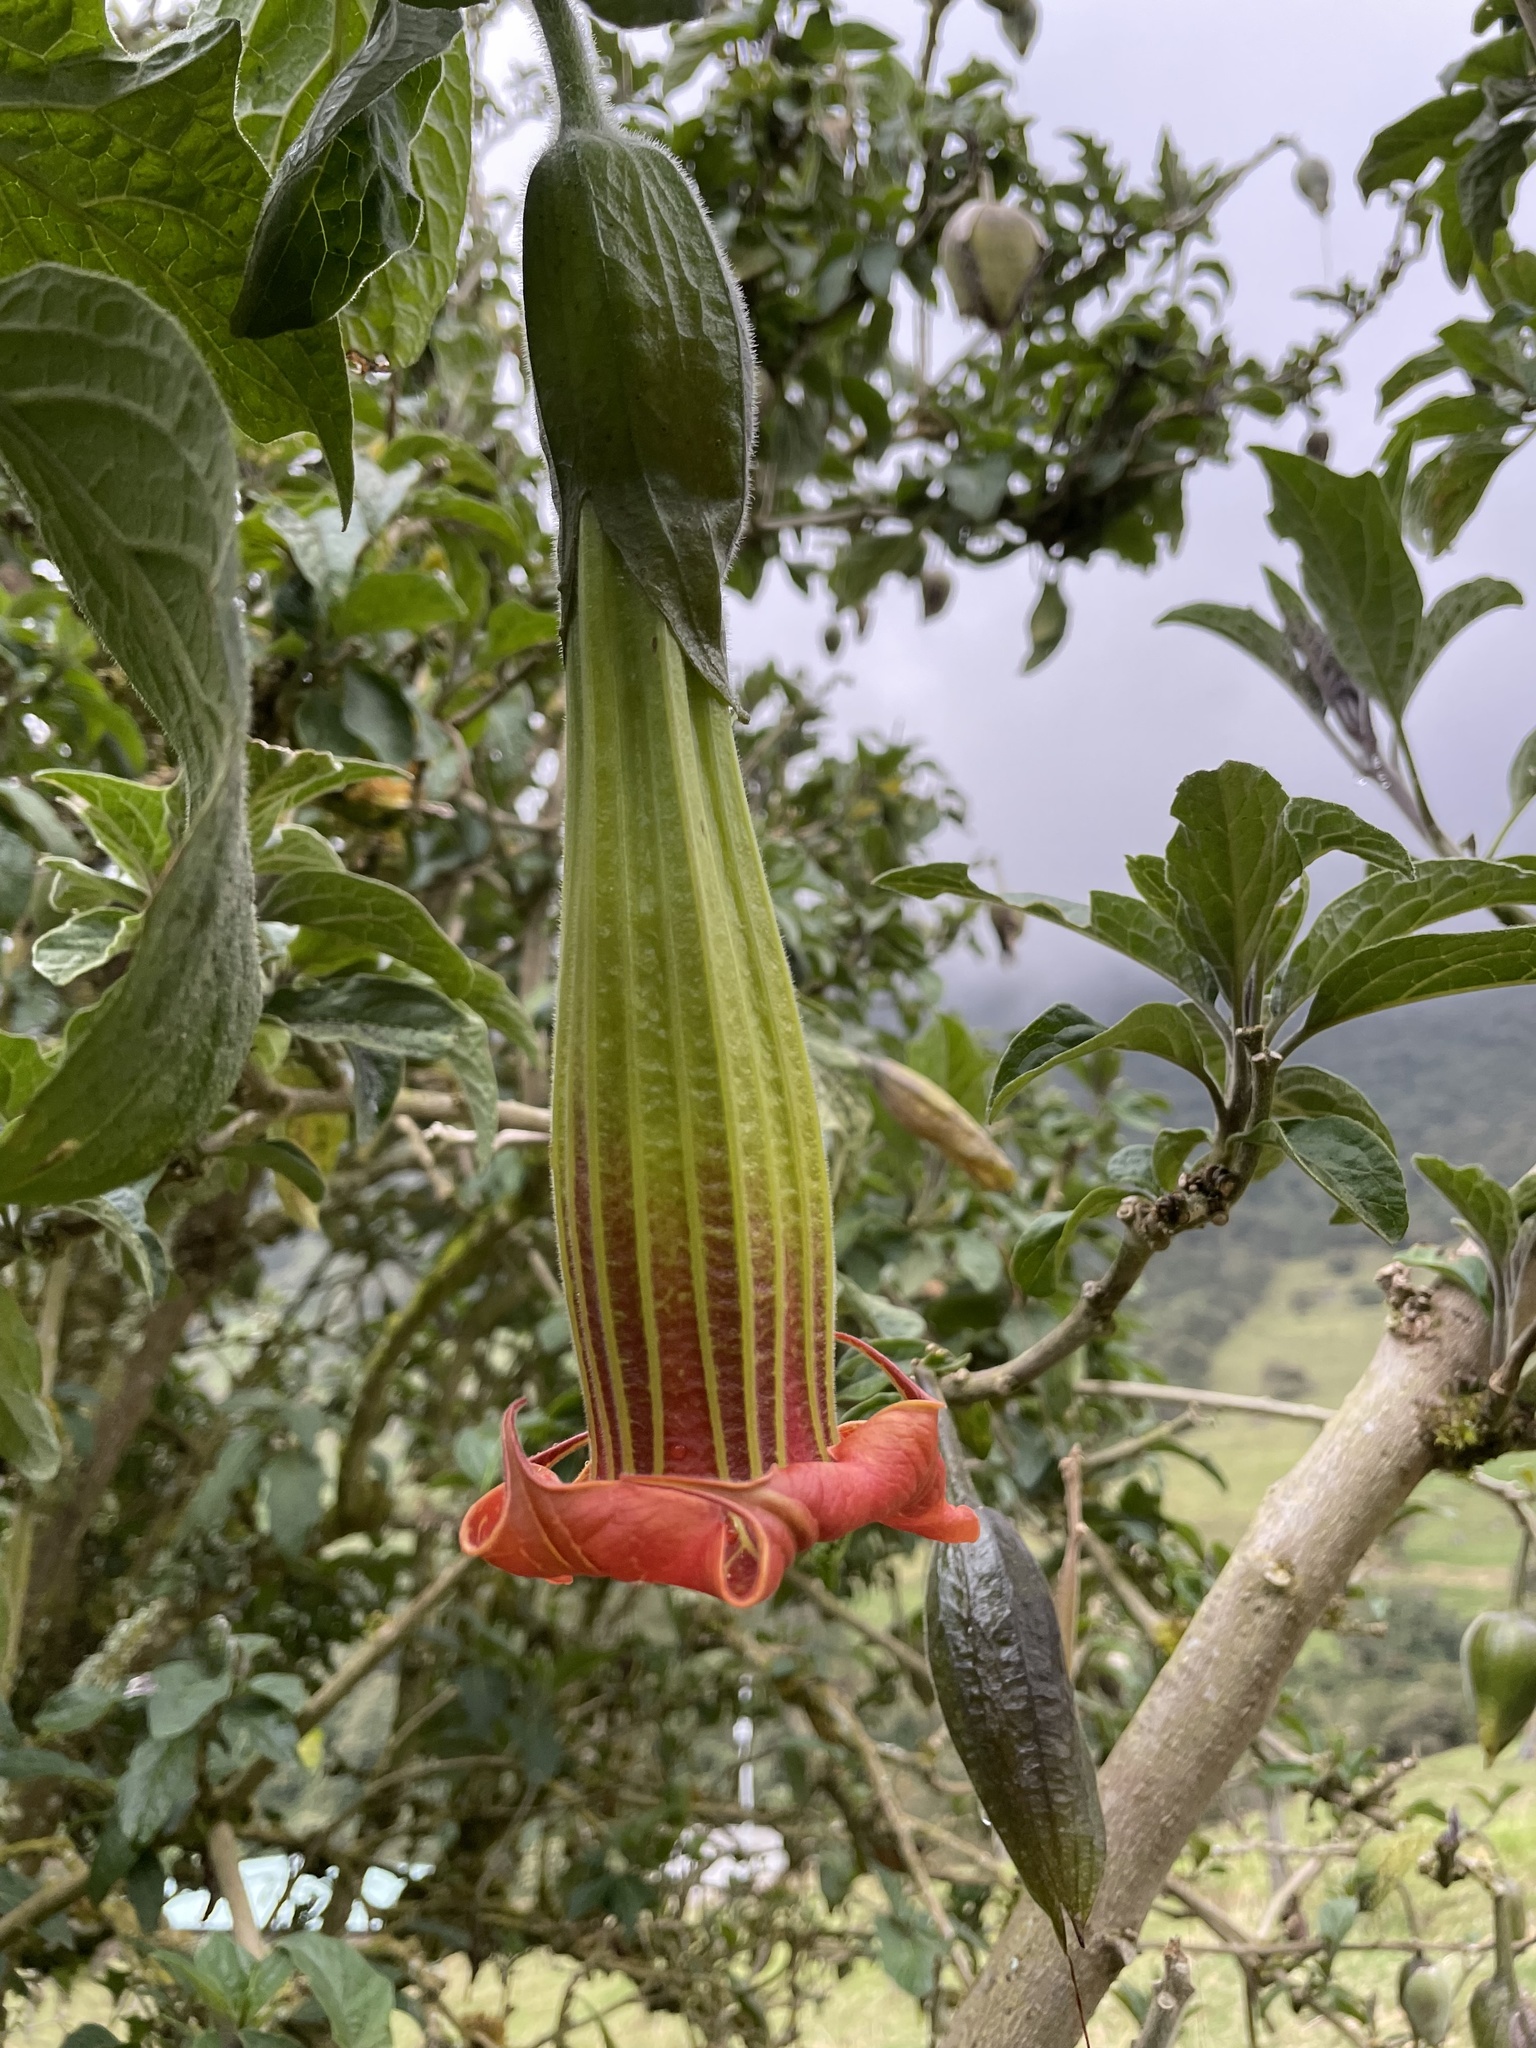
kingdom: Plantae
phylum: Tracheophyta
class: Magnoliopsida
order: Solanales
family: Solanaceae
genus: Brugmansia
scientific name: Brugmansia sanguinea
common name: Red floripontio
